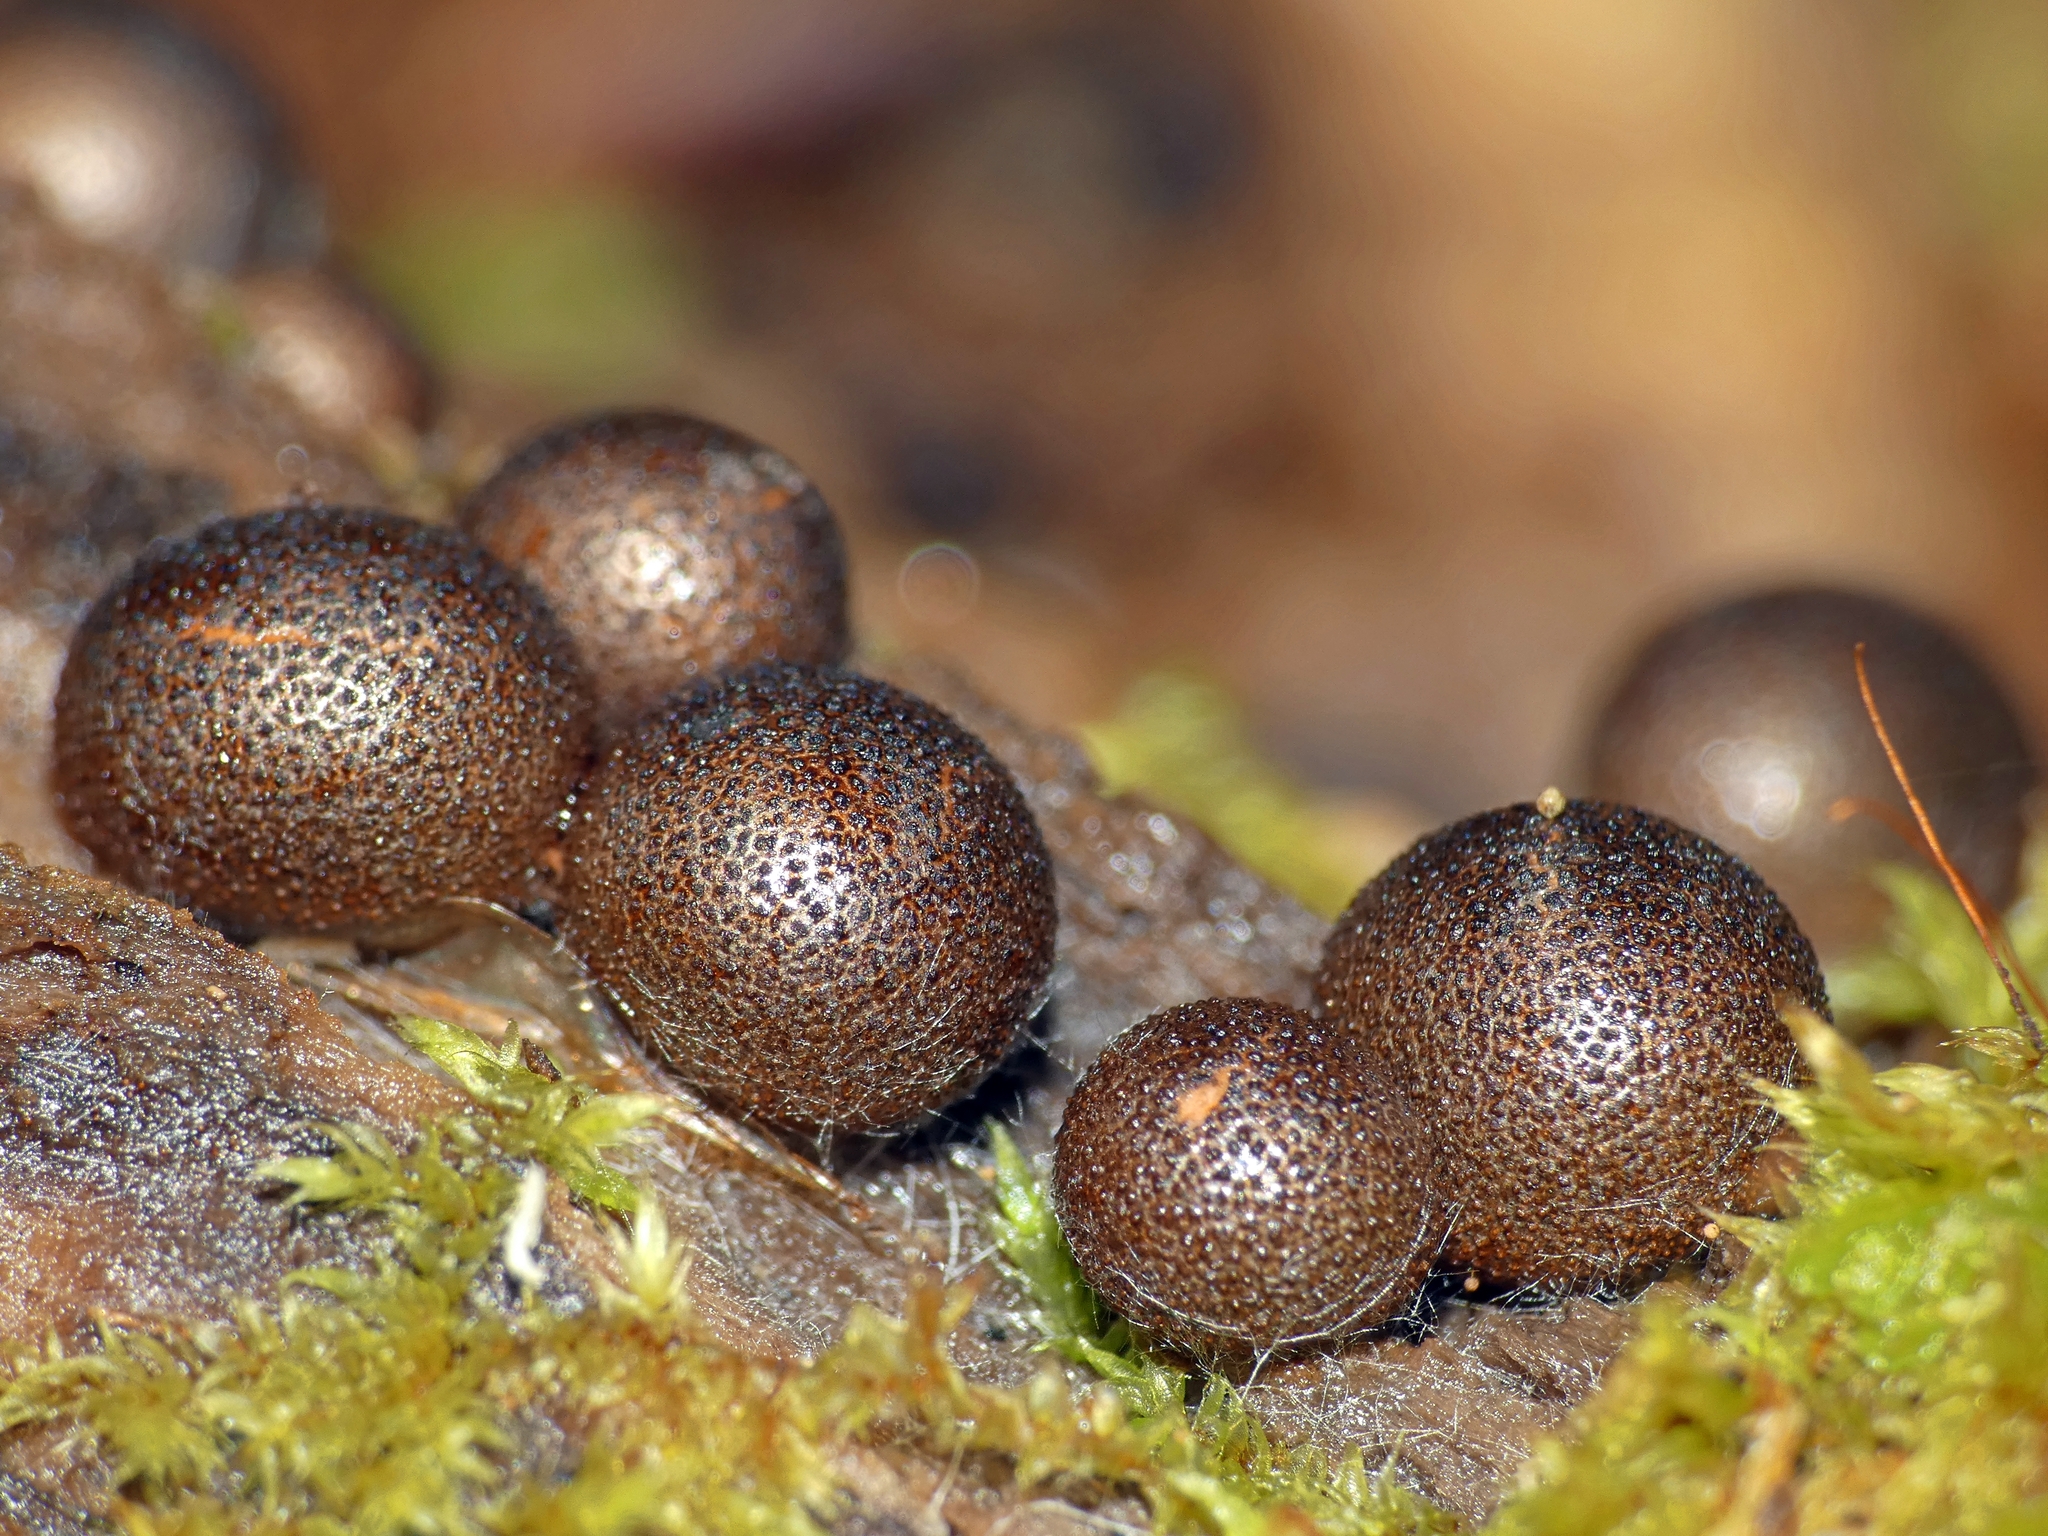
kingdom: Protozoa
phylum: Mycetozoa
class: Myxomycetes
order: Cribrariales
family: Tubiferaceae
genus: Lycogala
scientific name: Lycogala epidendrum
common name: Wolf's milk
